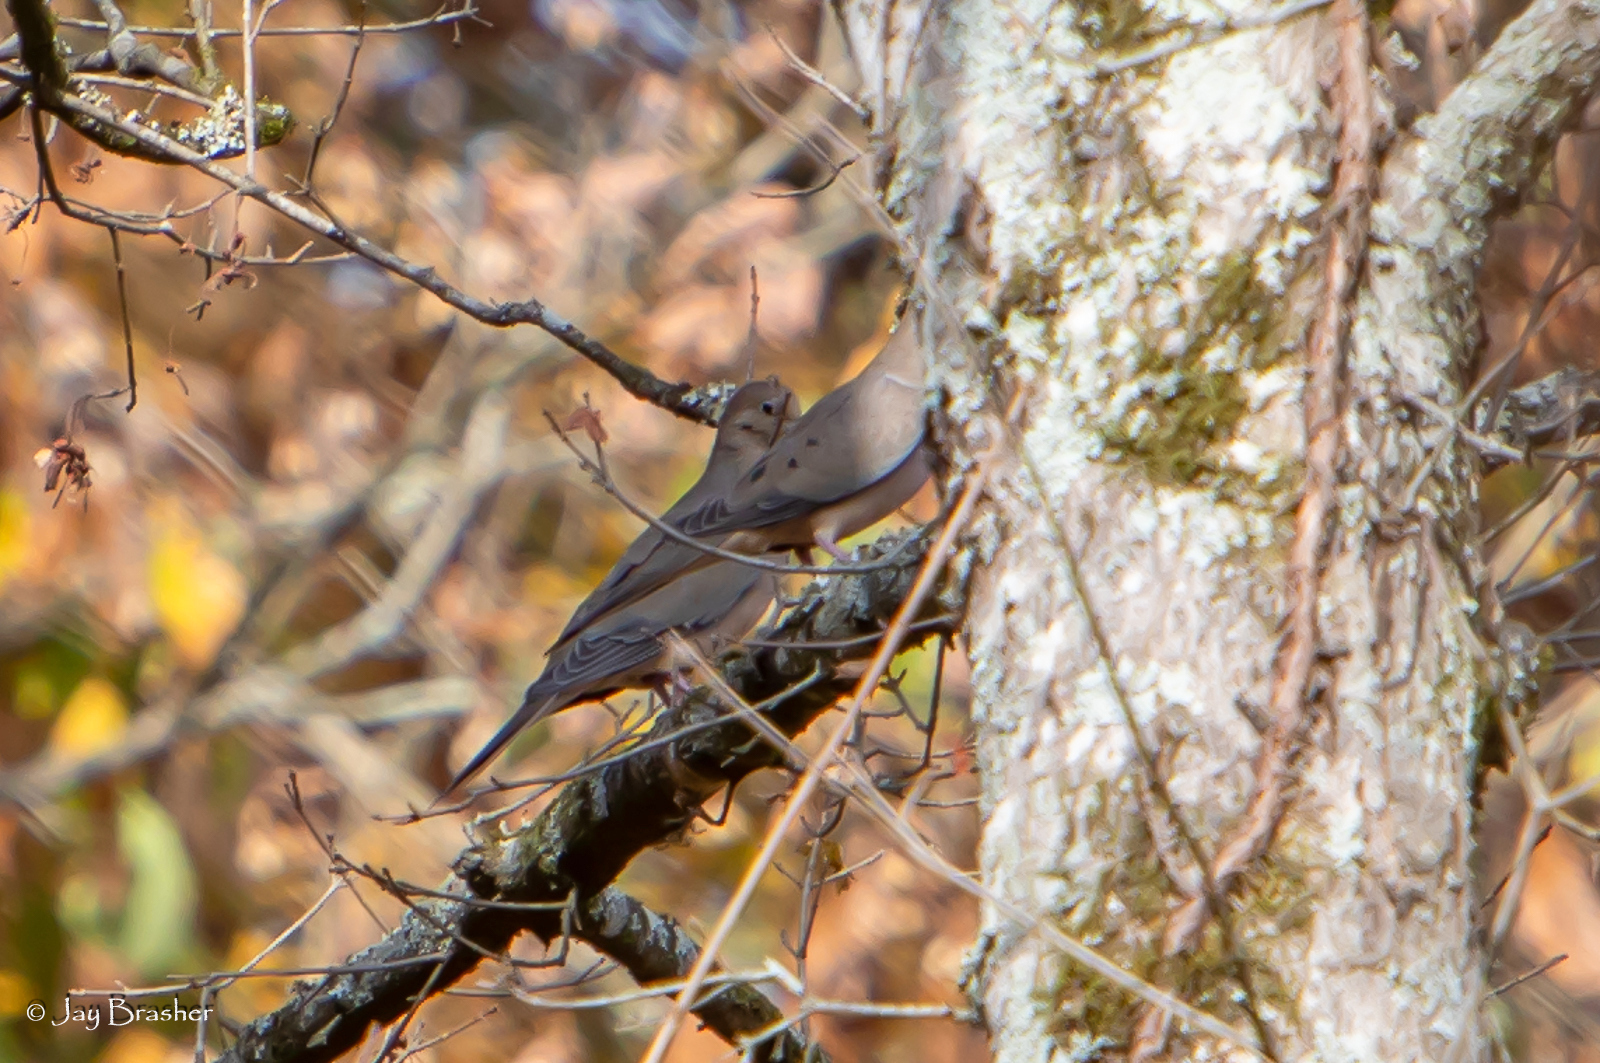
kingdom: Animalia
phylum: Chordata
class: Aves
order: Columbiformes
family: Columbidae
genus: Zenaida
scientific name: Zenaida macroura
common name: Mourning dove
